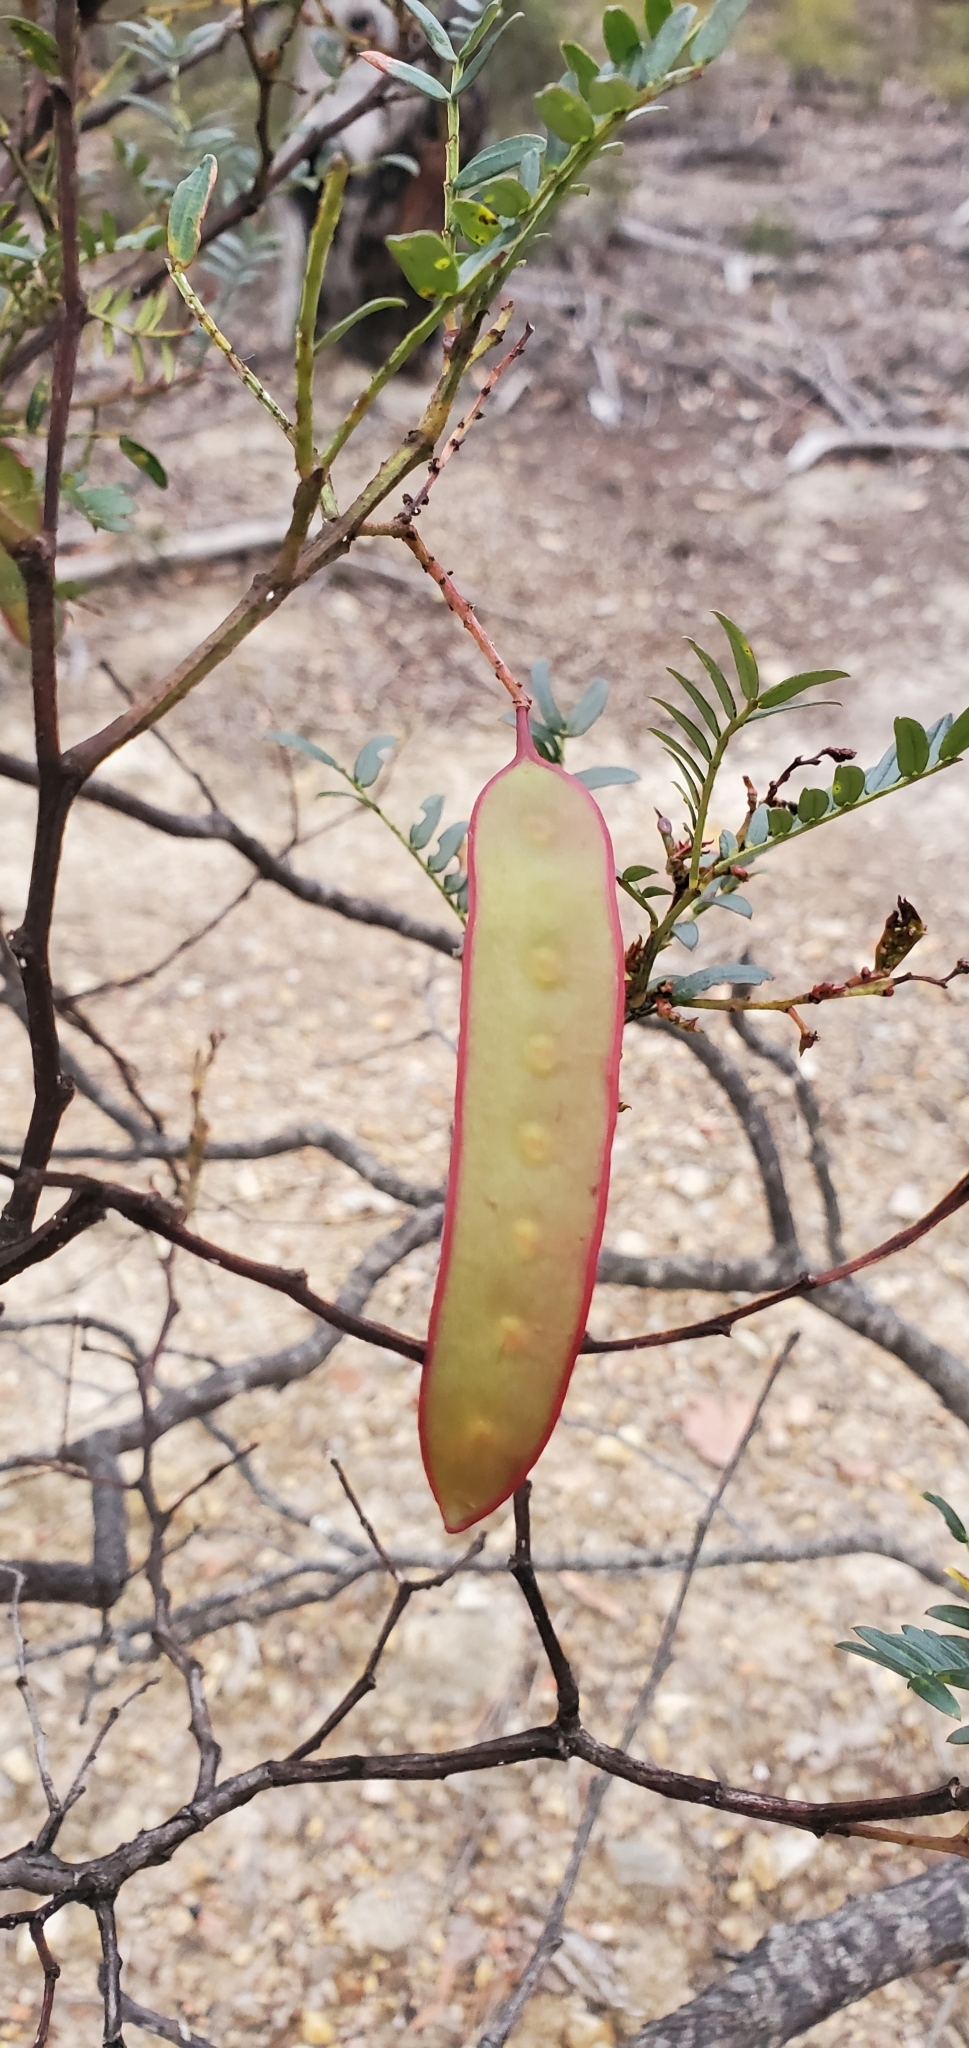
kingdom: Plantae
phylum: Tracheophyta
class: Magnoliopsida
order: Fabales
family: Fabaceae
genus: Acacia
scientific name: Acacia terminalis
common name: Cedar wattle
